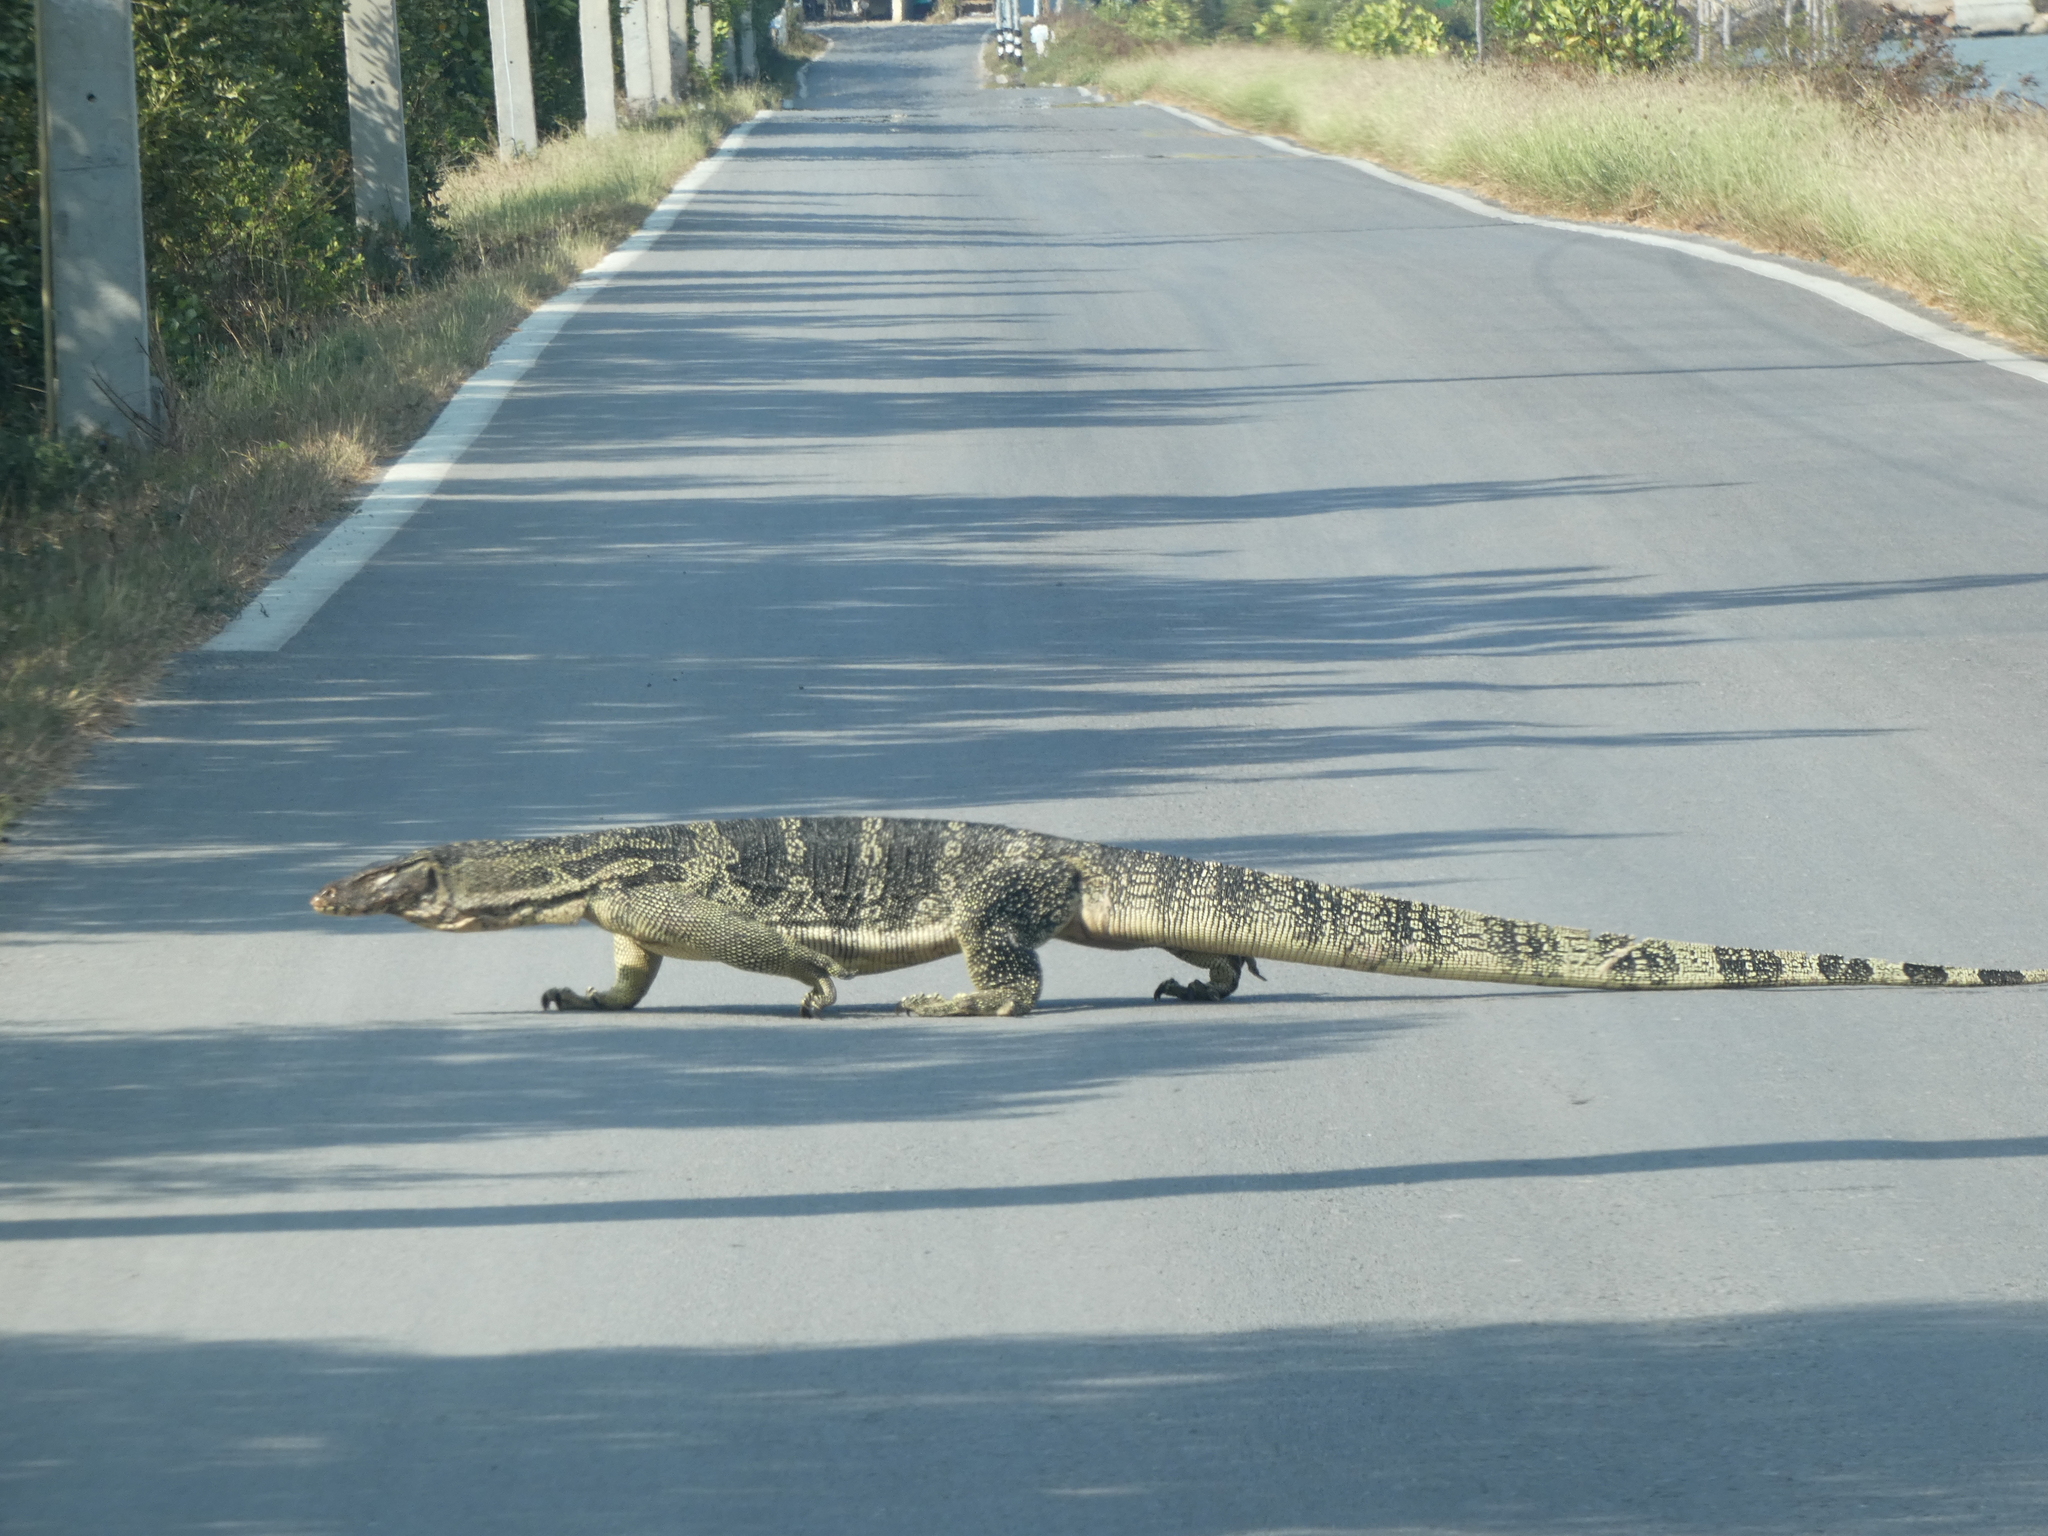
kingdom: Animalia
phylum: Chordata
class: Squamata
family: Varanidae
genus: Varanus
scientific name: Varanus salvator
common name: Common water monitor
